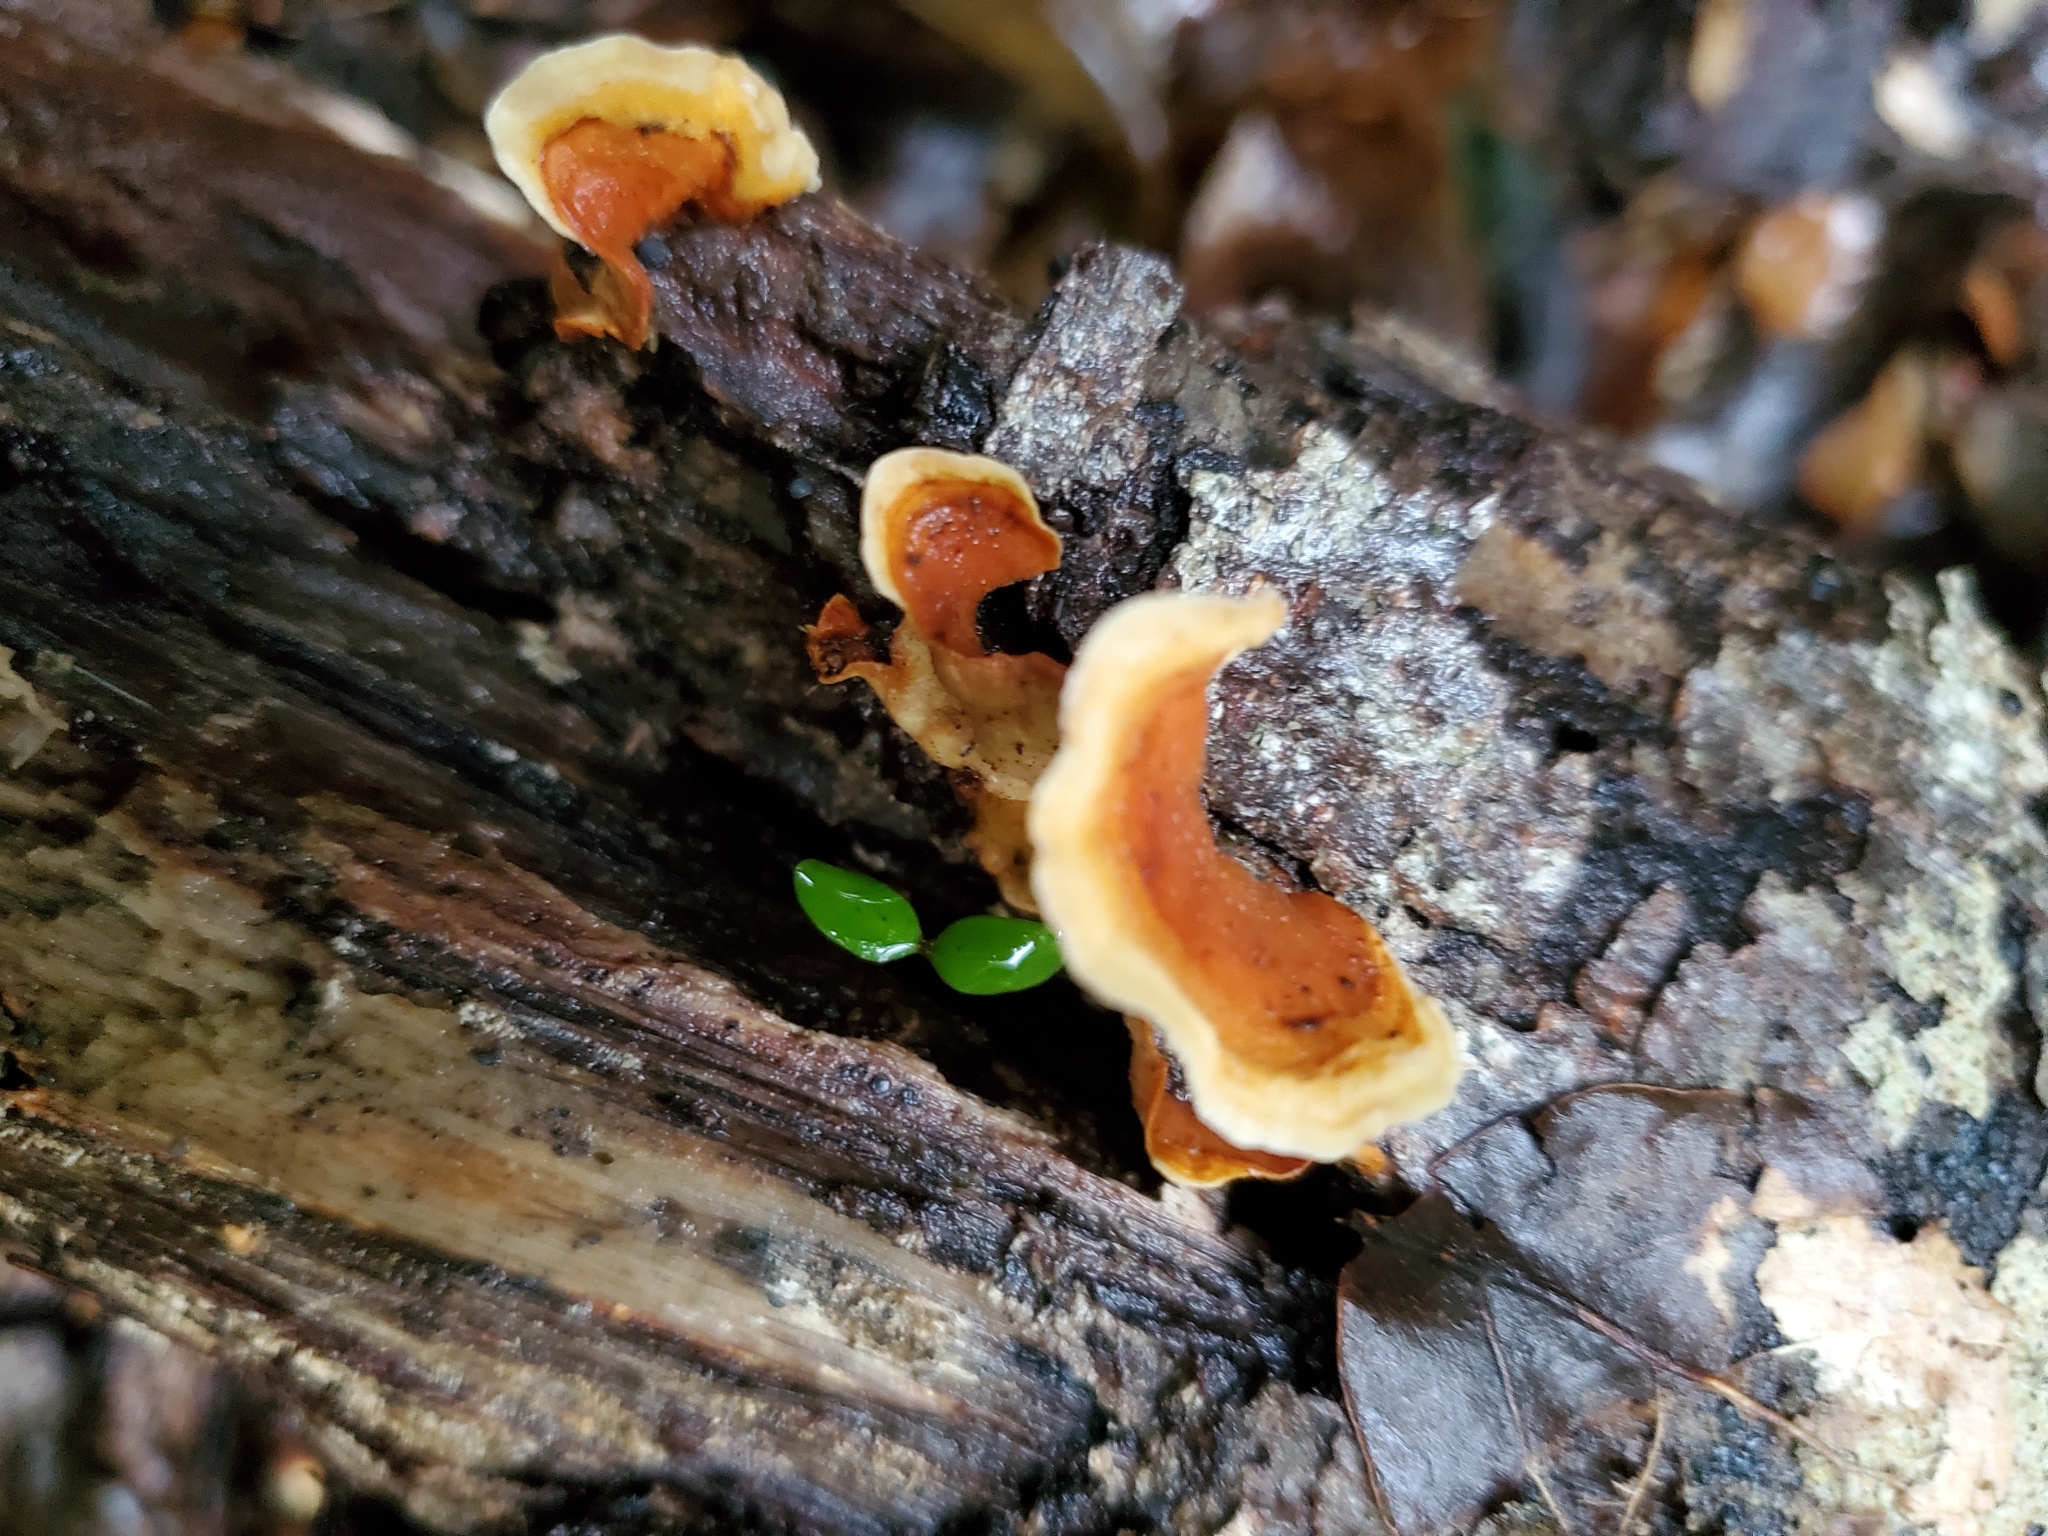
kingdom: Fungi
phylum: Basidiomycota
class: Agaricomycetes
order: Russulales
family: Stereaceae
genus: Stereum
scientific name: Stereum versicolor
